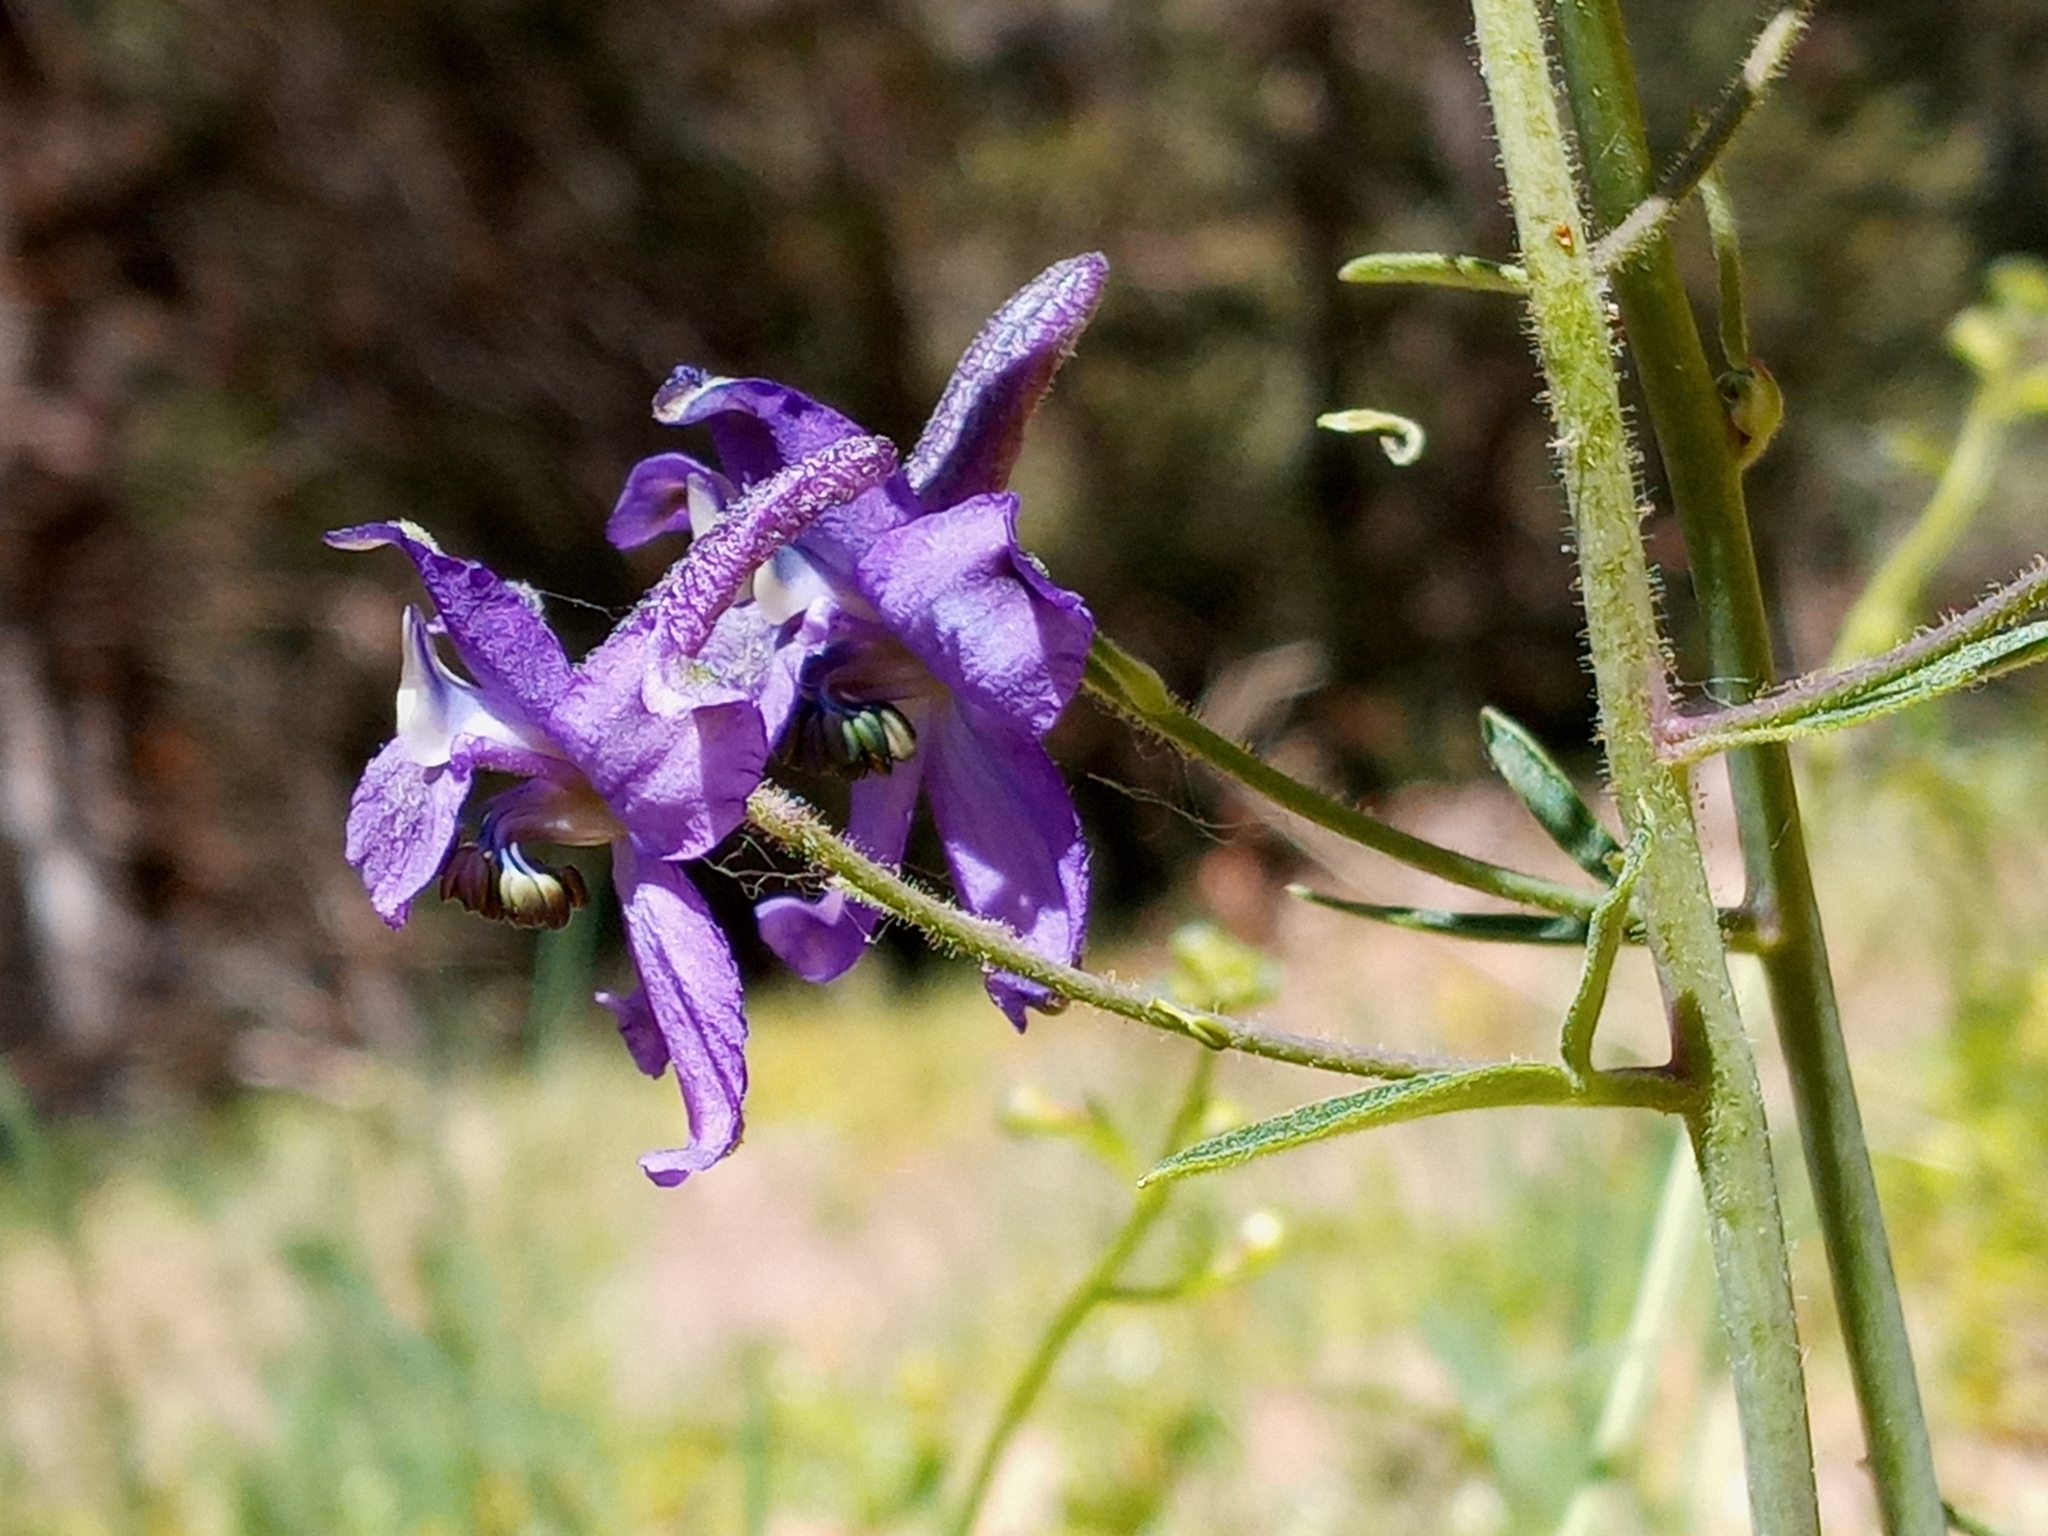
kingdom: Plantae
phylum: Tracheophyta
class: Magnoliopsida
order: Ranunculales
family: Ranunculaceae
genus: Delphinium
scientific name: Delphinium patens
